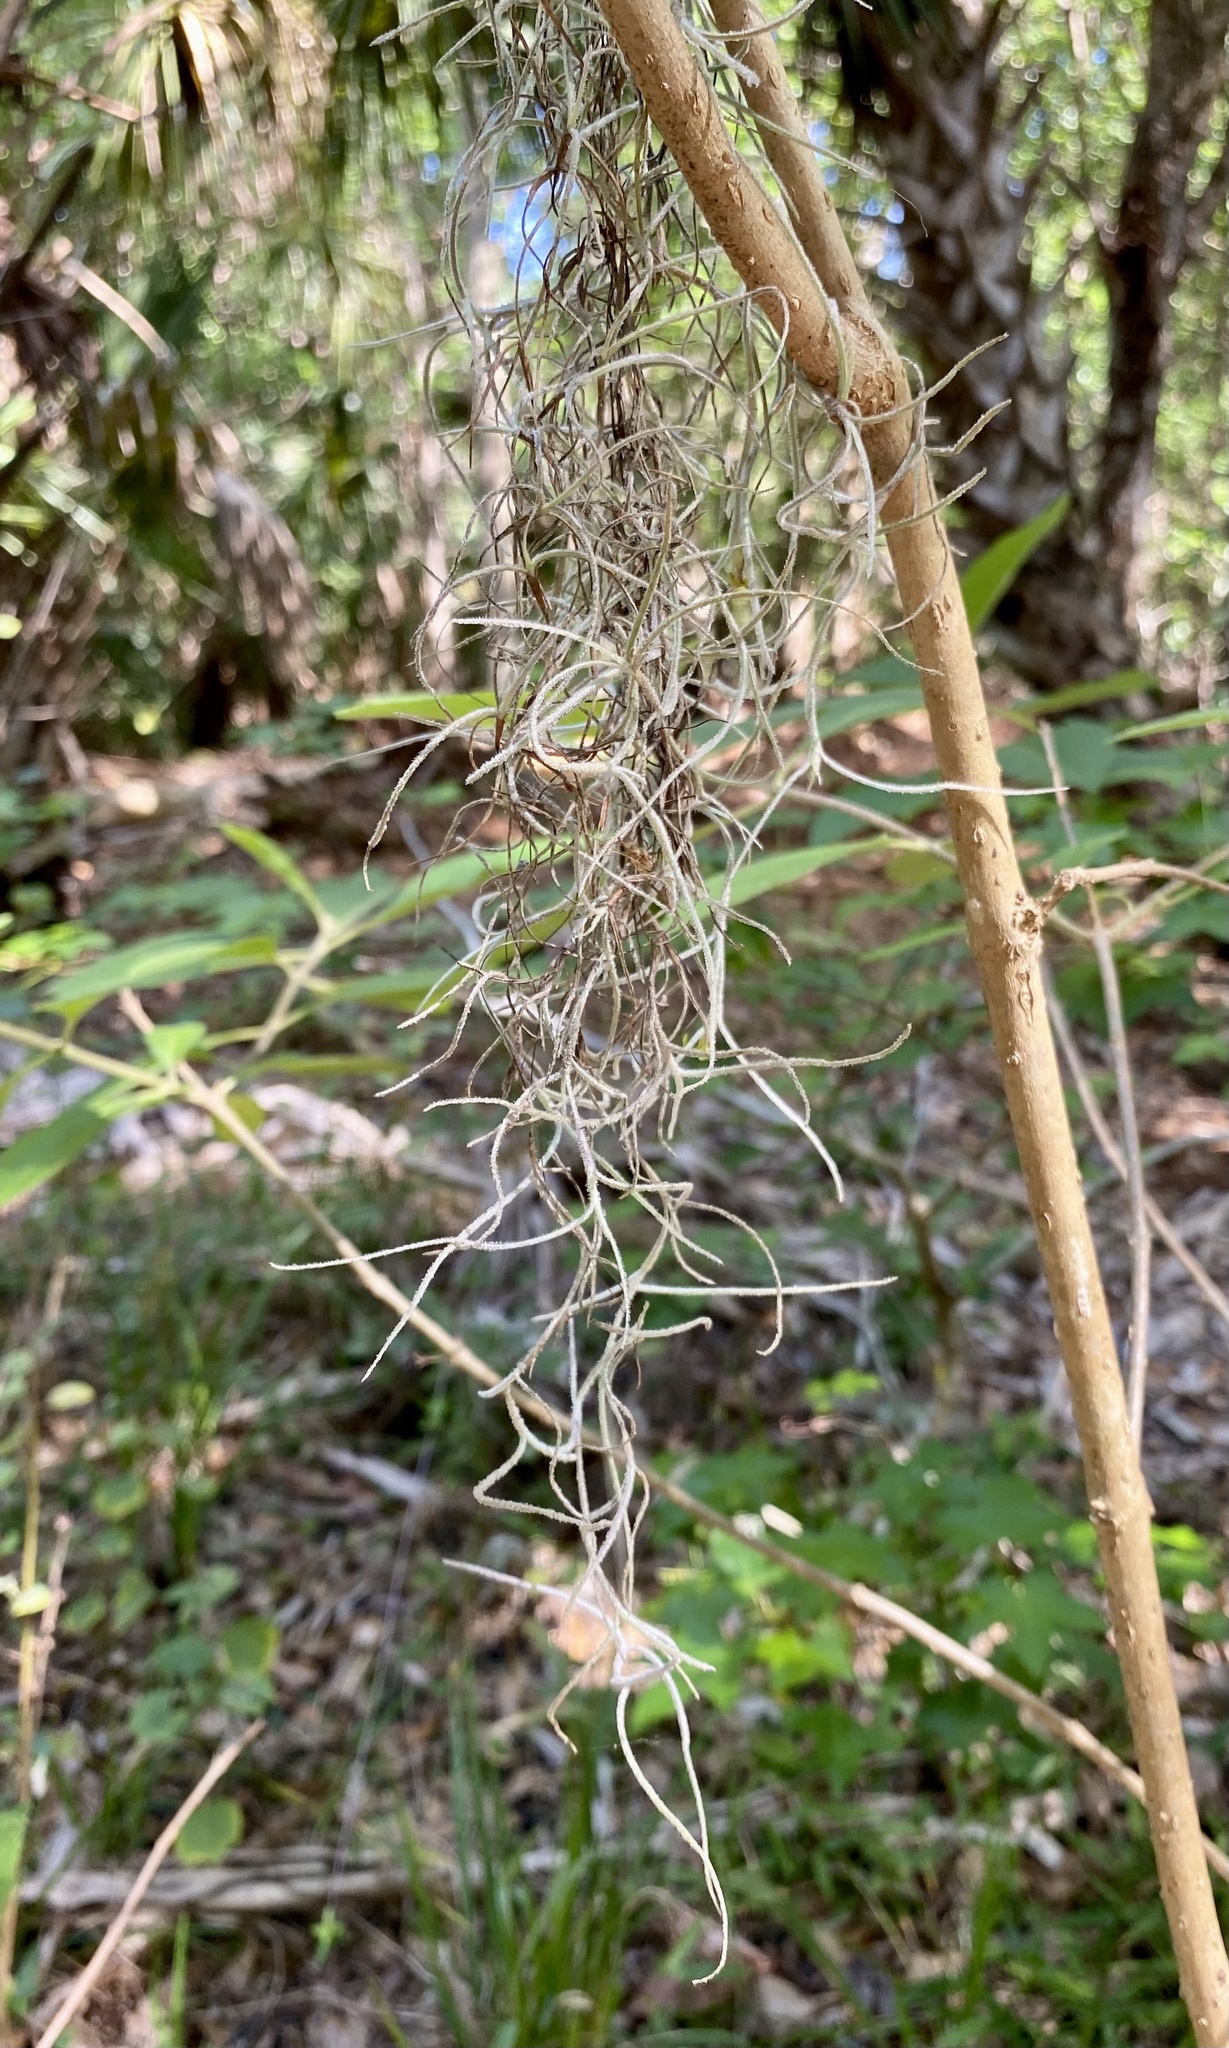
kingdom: Plantae
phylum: Tracheophyta
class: Liliopsida
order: Poales
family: Bromeliaceae
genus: Tillandsia
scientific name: Tillandsia usneoides
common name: Spanish moss
